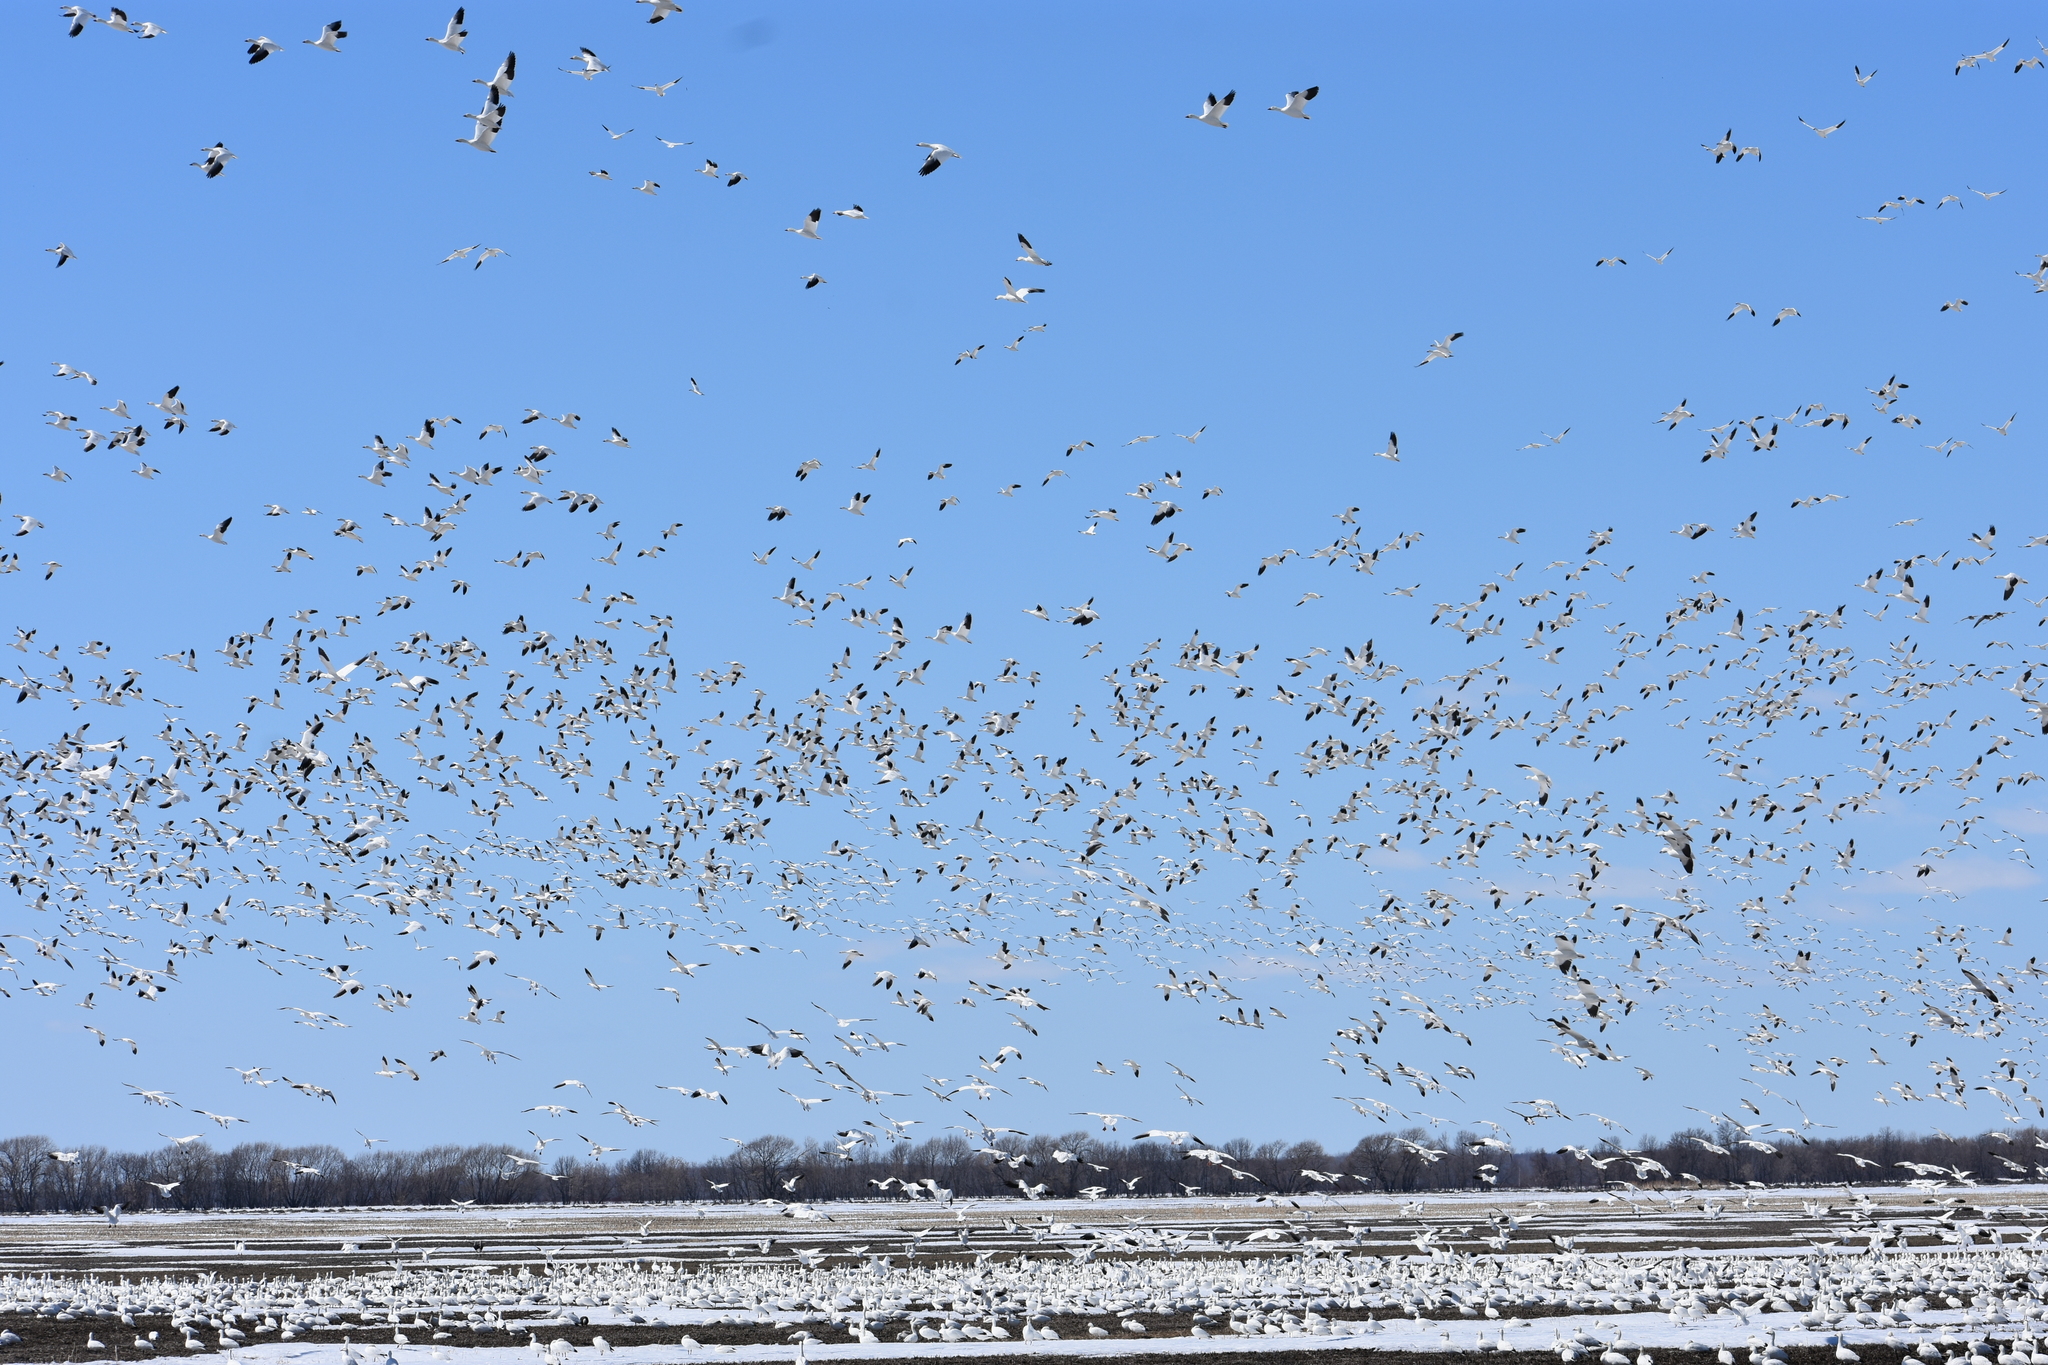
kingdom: Animalia
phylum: Chordata
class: Aves
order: Anseriformes
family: Anatidae
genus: Anser
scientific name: Anser caerulescens
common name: Snow goose
